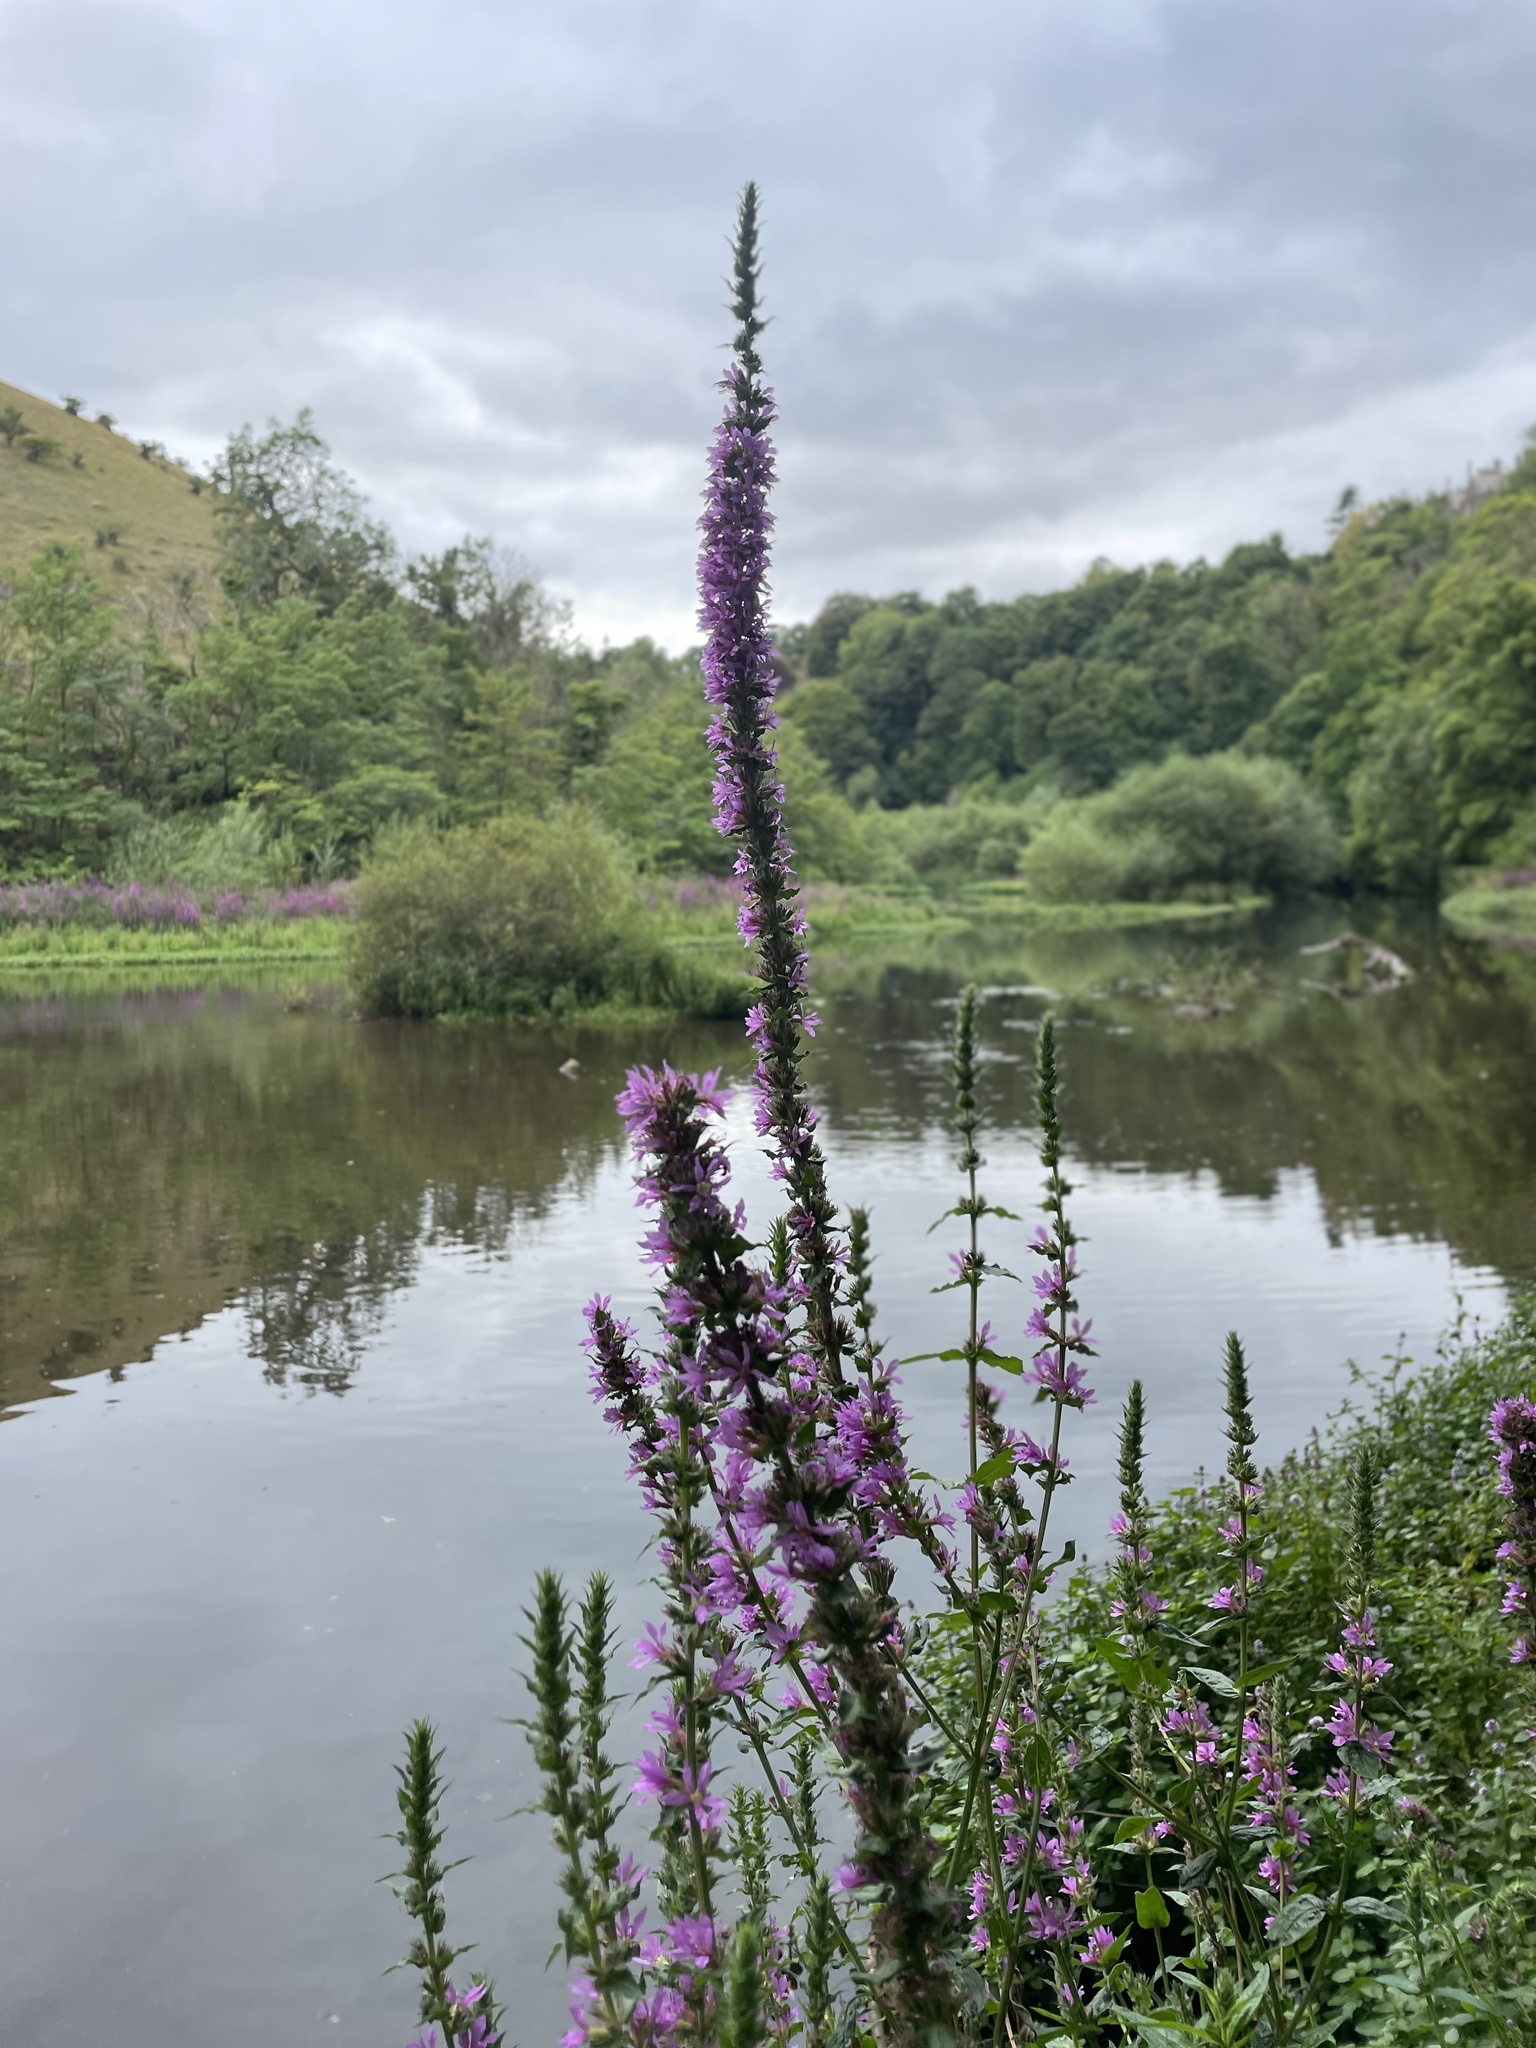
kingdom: Plantae
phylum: Tracheophyta
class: Magnoliopsida
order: Myrtales
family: Lythraceae
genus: Lythrum
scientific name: Lythrum salicaria
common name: Purple loosestrife
